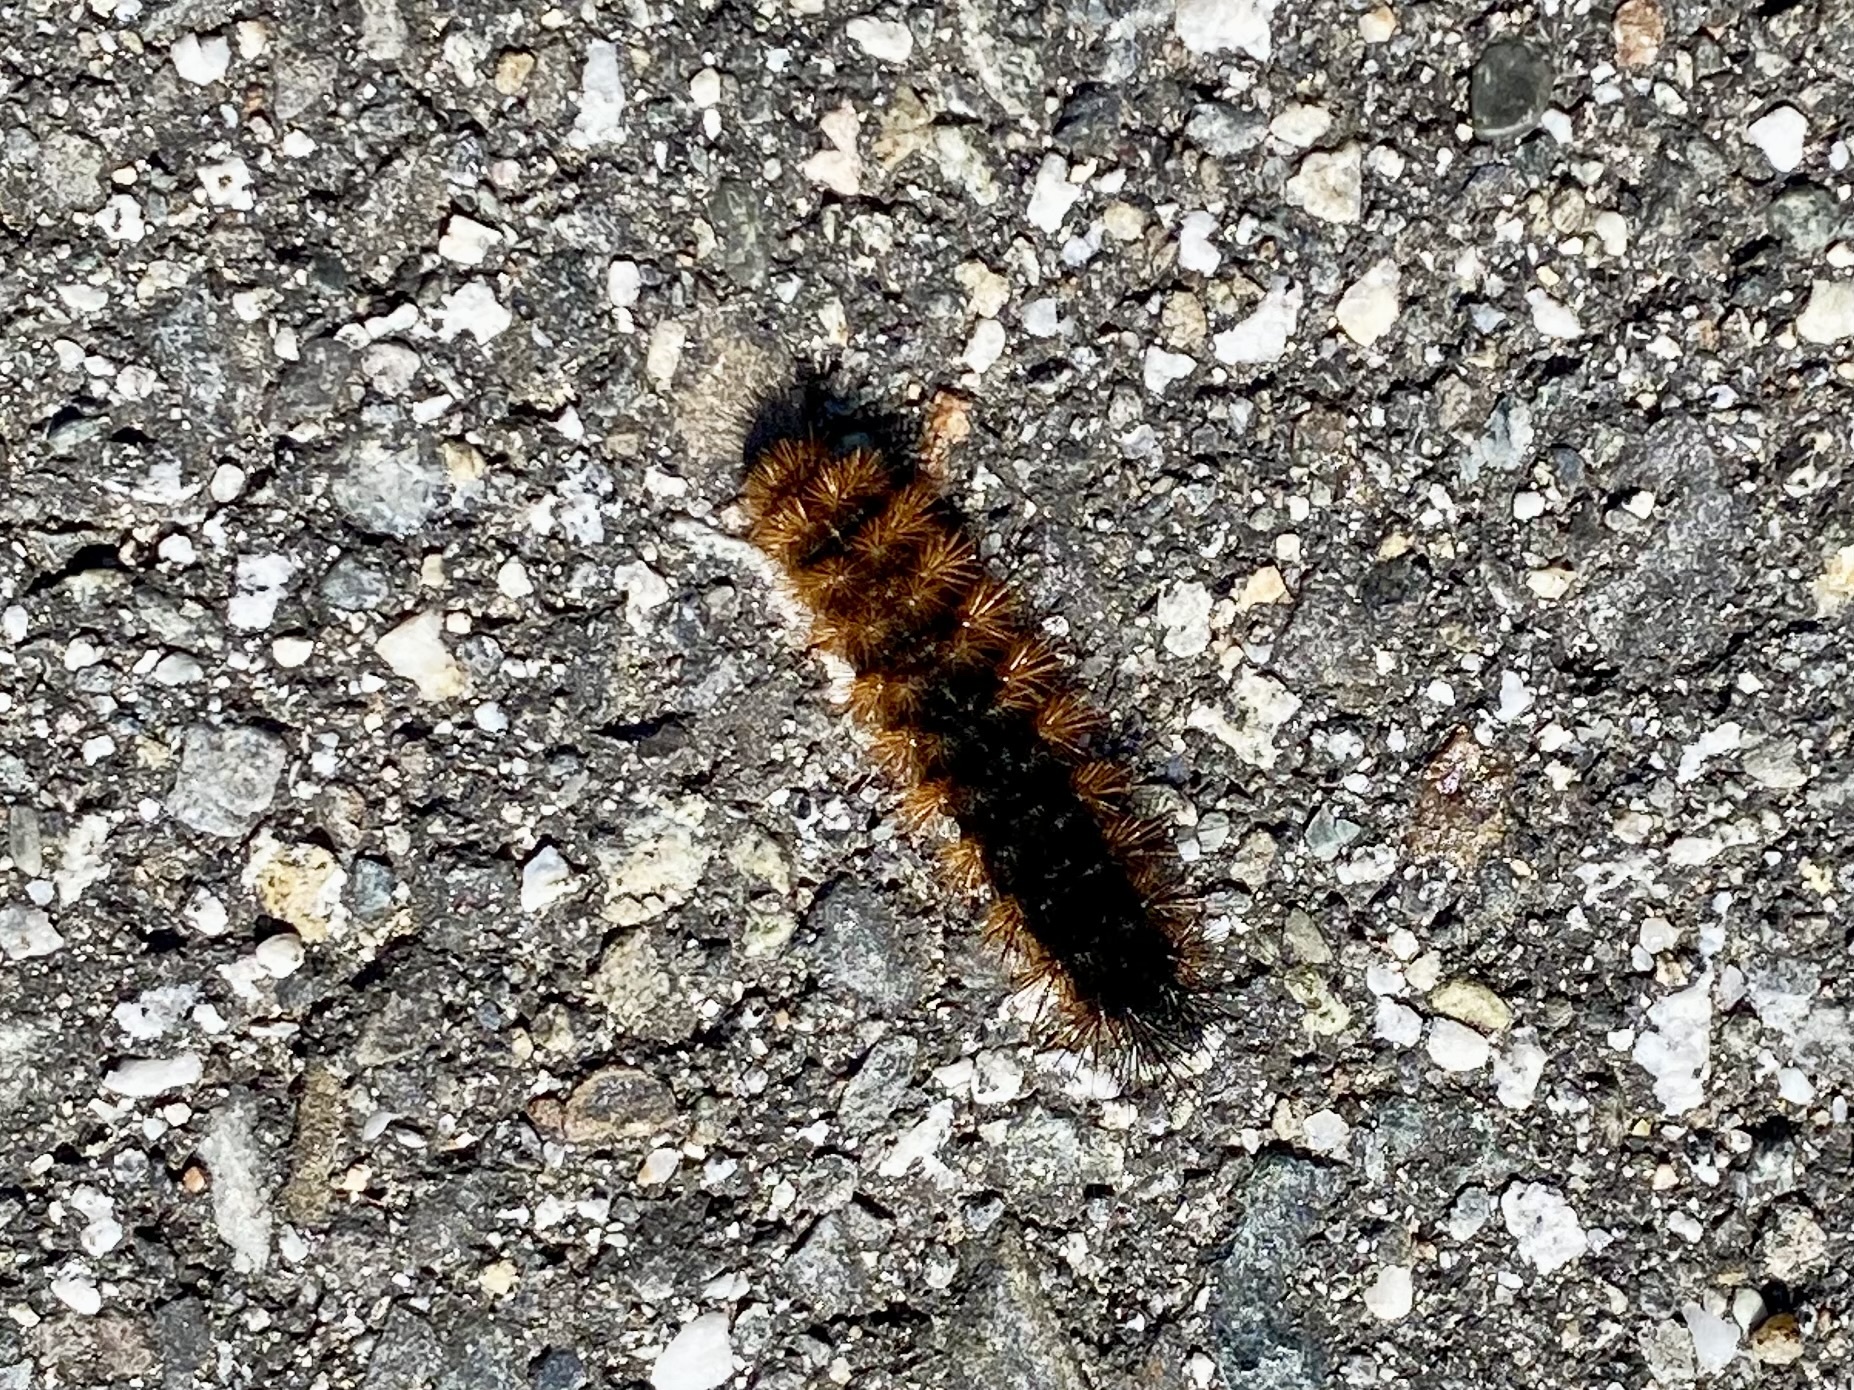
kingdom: Animalia
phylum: Arthropoda
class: Insecta
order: Lepidoptera
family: Erebidae
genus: Pyrrharctia
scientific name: Pyrrharctia isabella
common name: Isabella tiger moth
